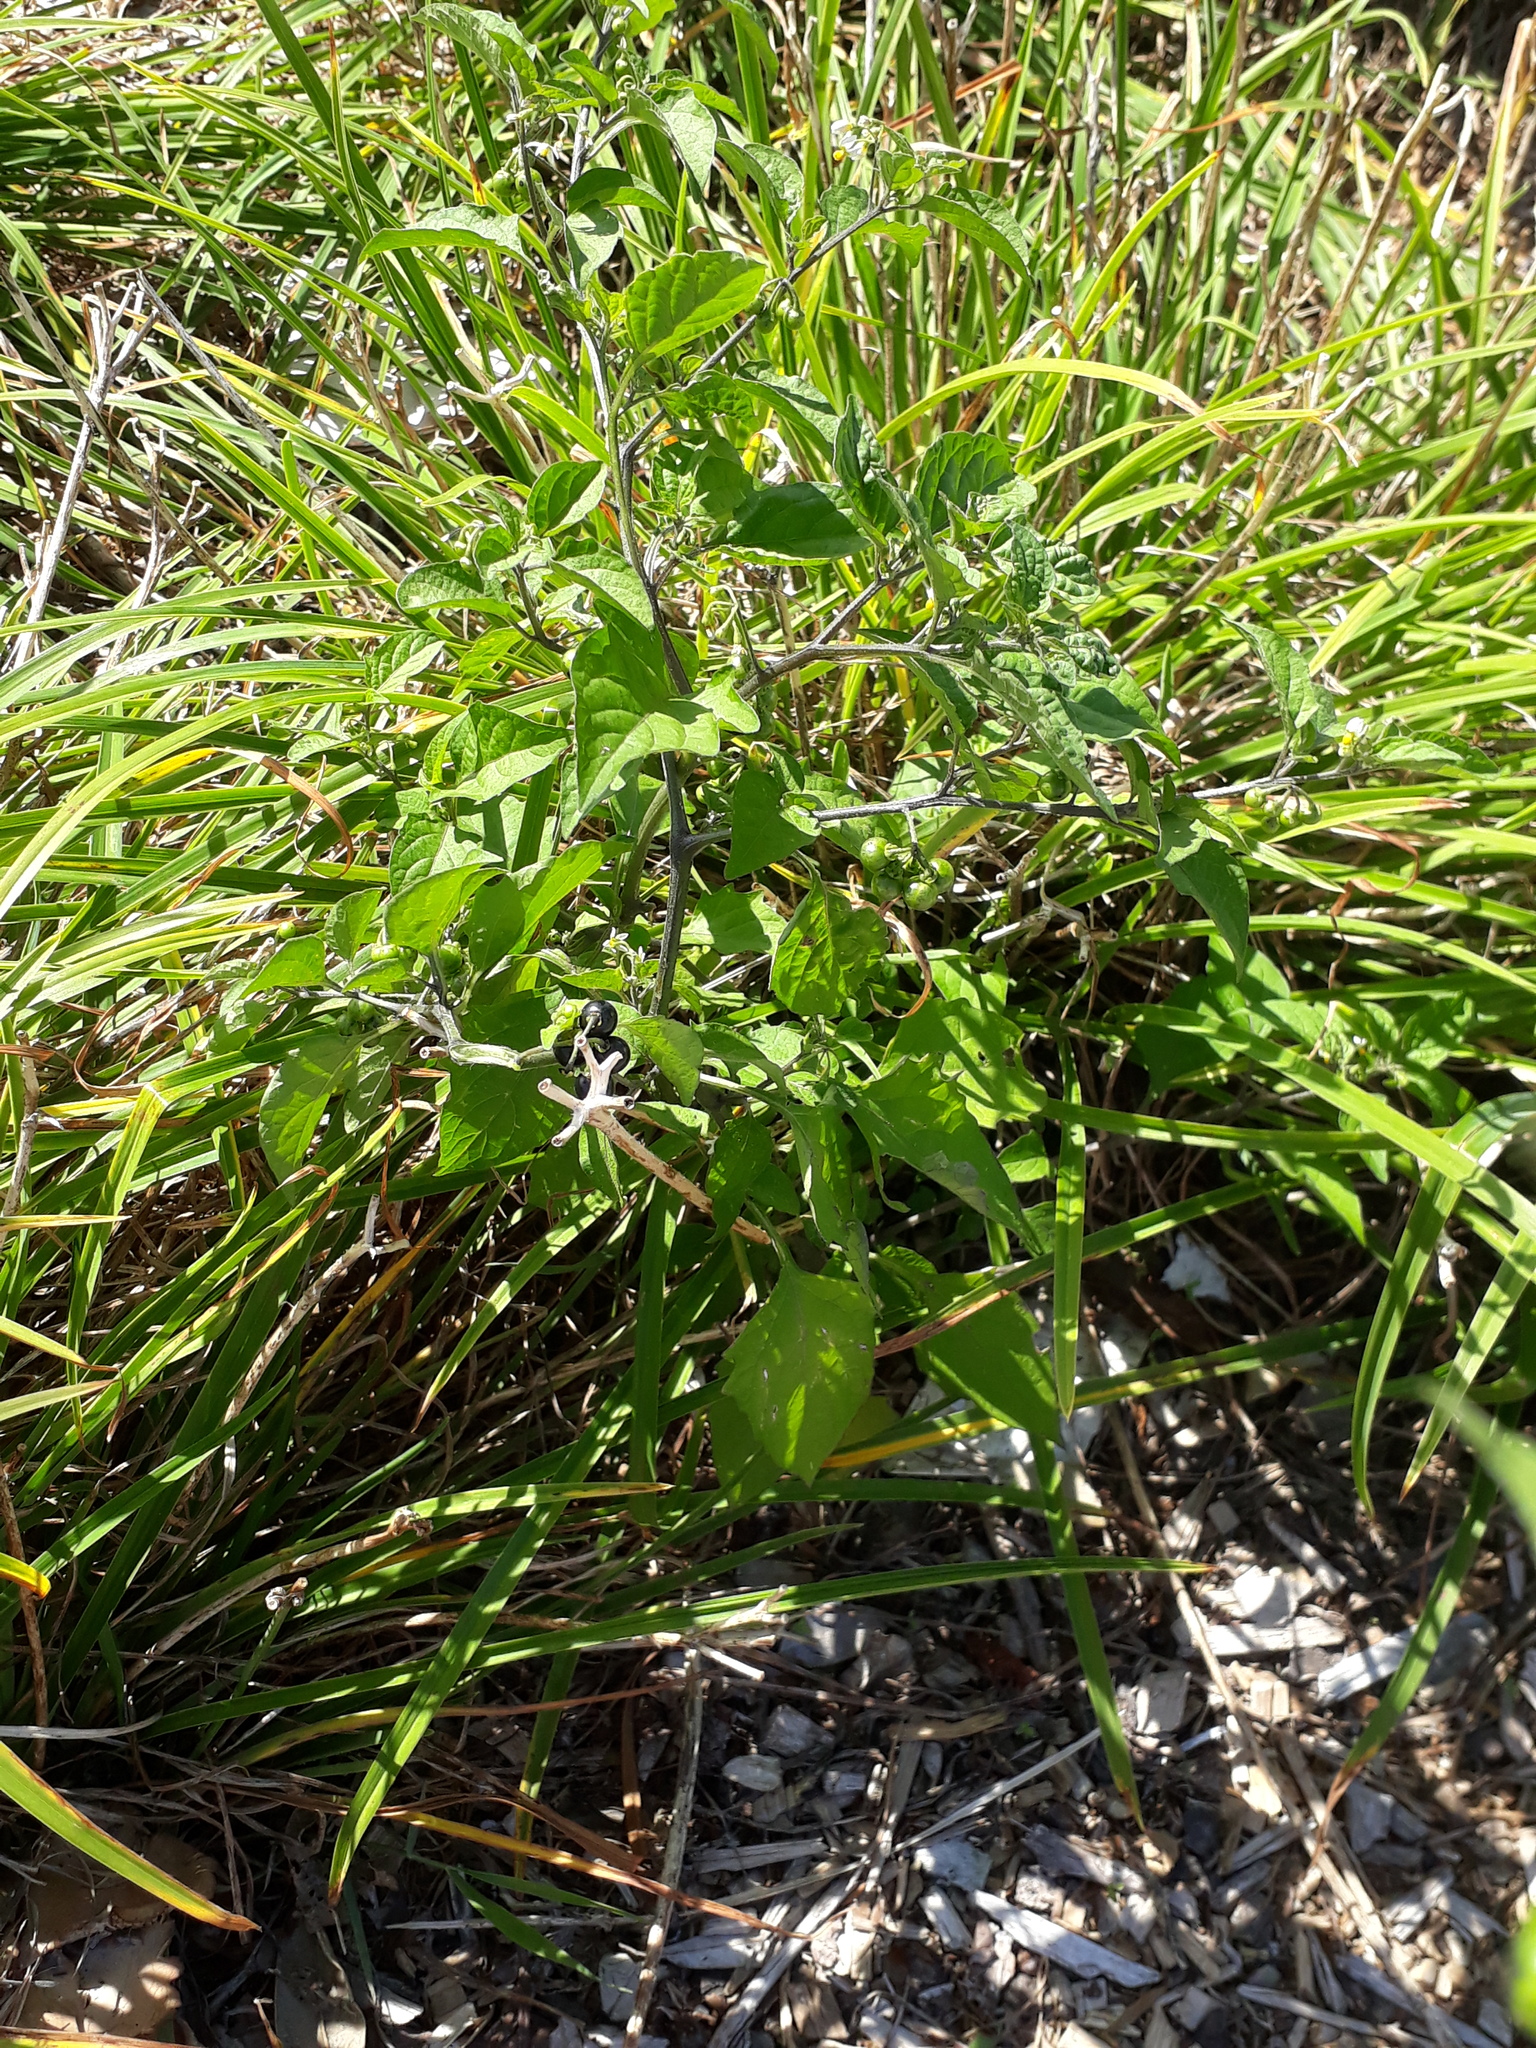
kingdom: Plantae
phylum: Tracheophyta
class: Magnoliopsida
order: Solanales
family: Solanaceae
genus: Solanum
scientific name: Solanum americanum
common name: American black nightshade
